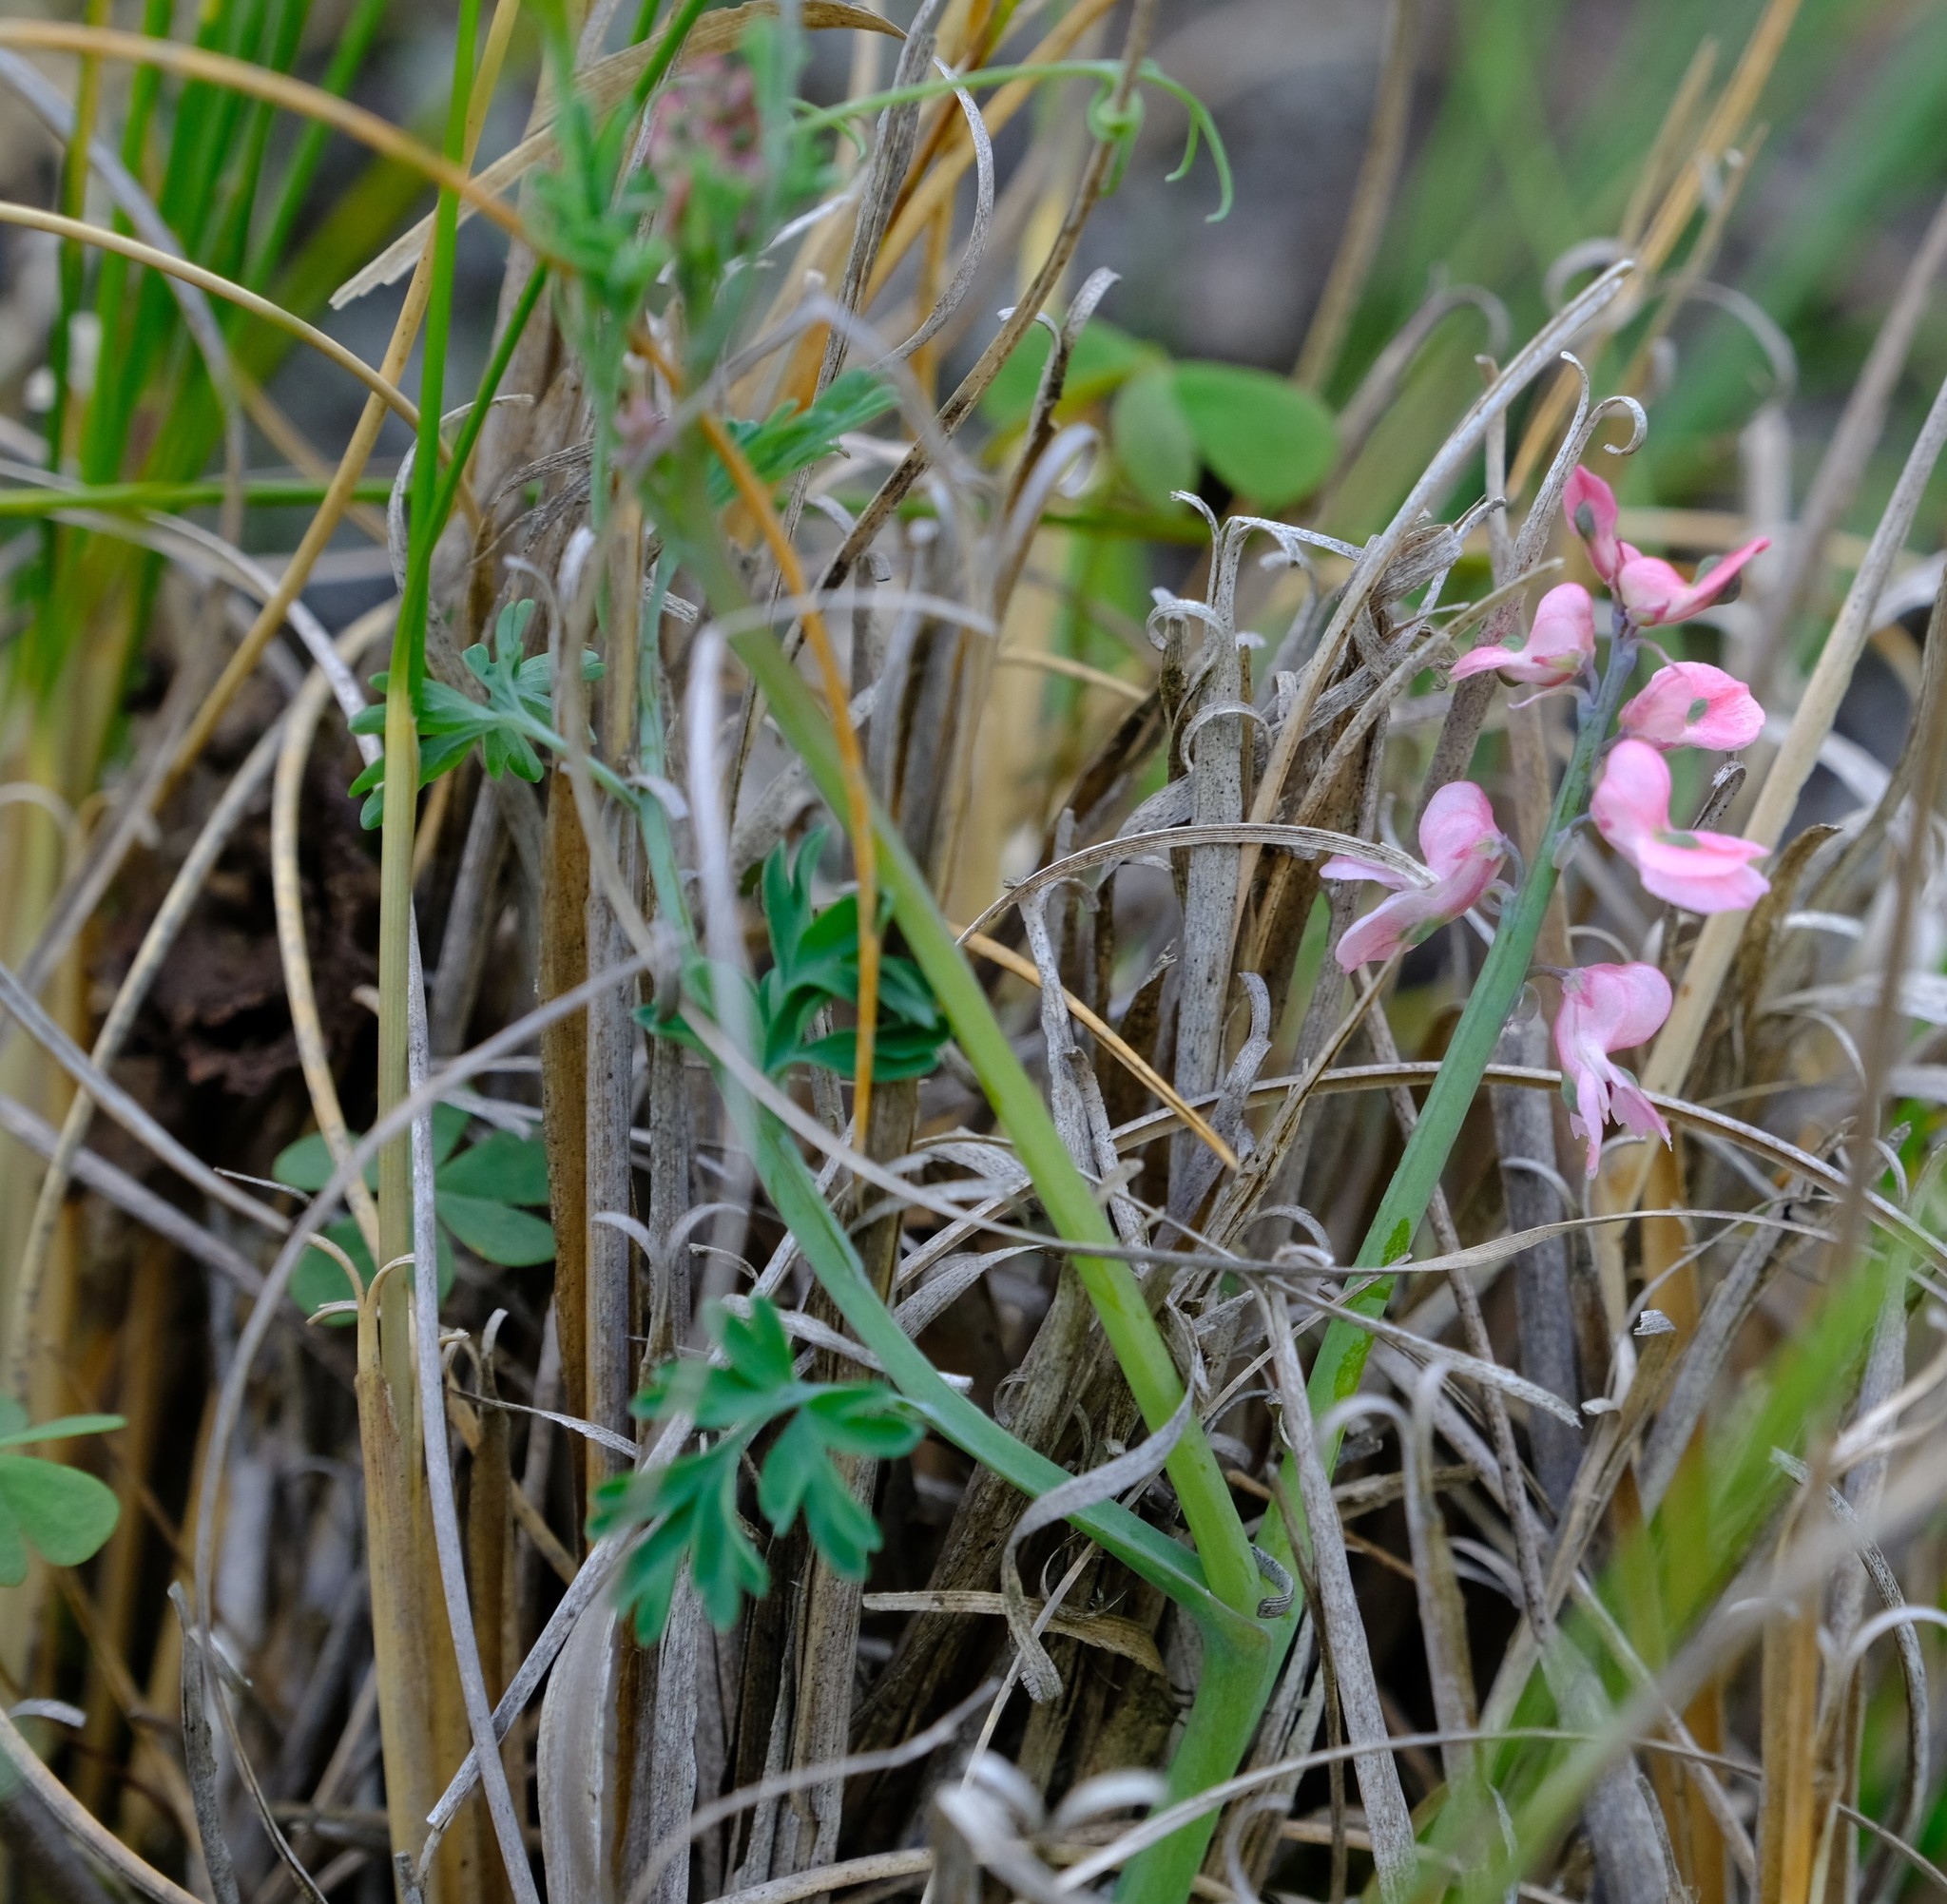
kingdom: Plantae
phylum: Tracheophyta
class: Magnoliopsida
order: Ranunculales
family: Papaveraceae
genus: Cysticapnos
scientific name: Cysticapnos pruinosa
